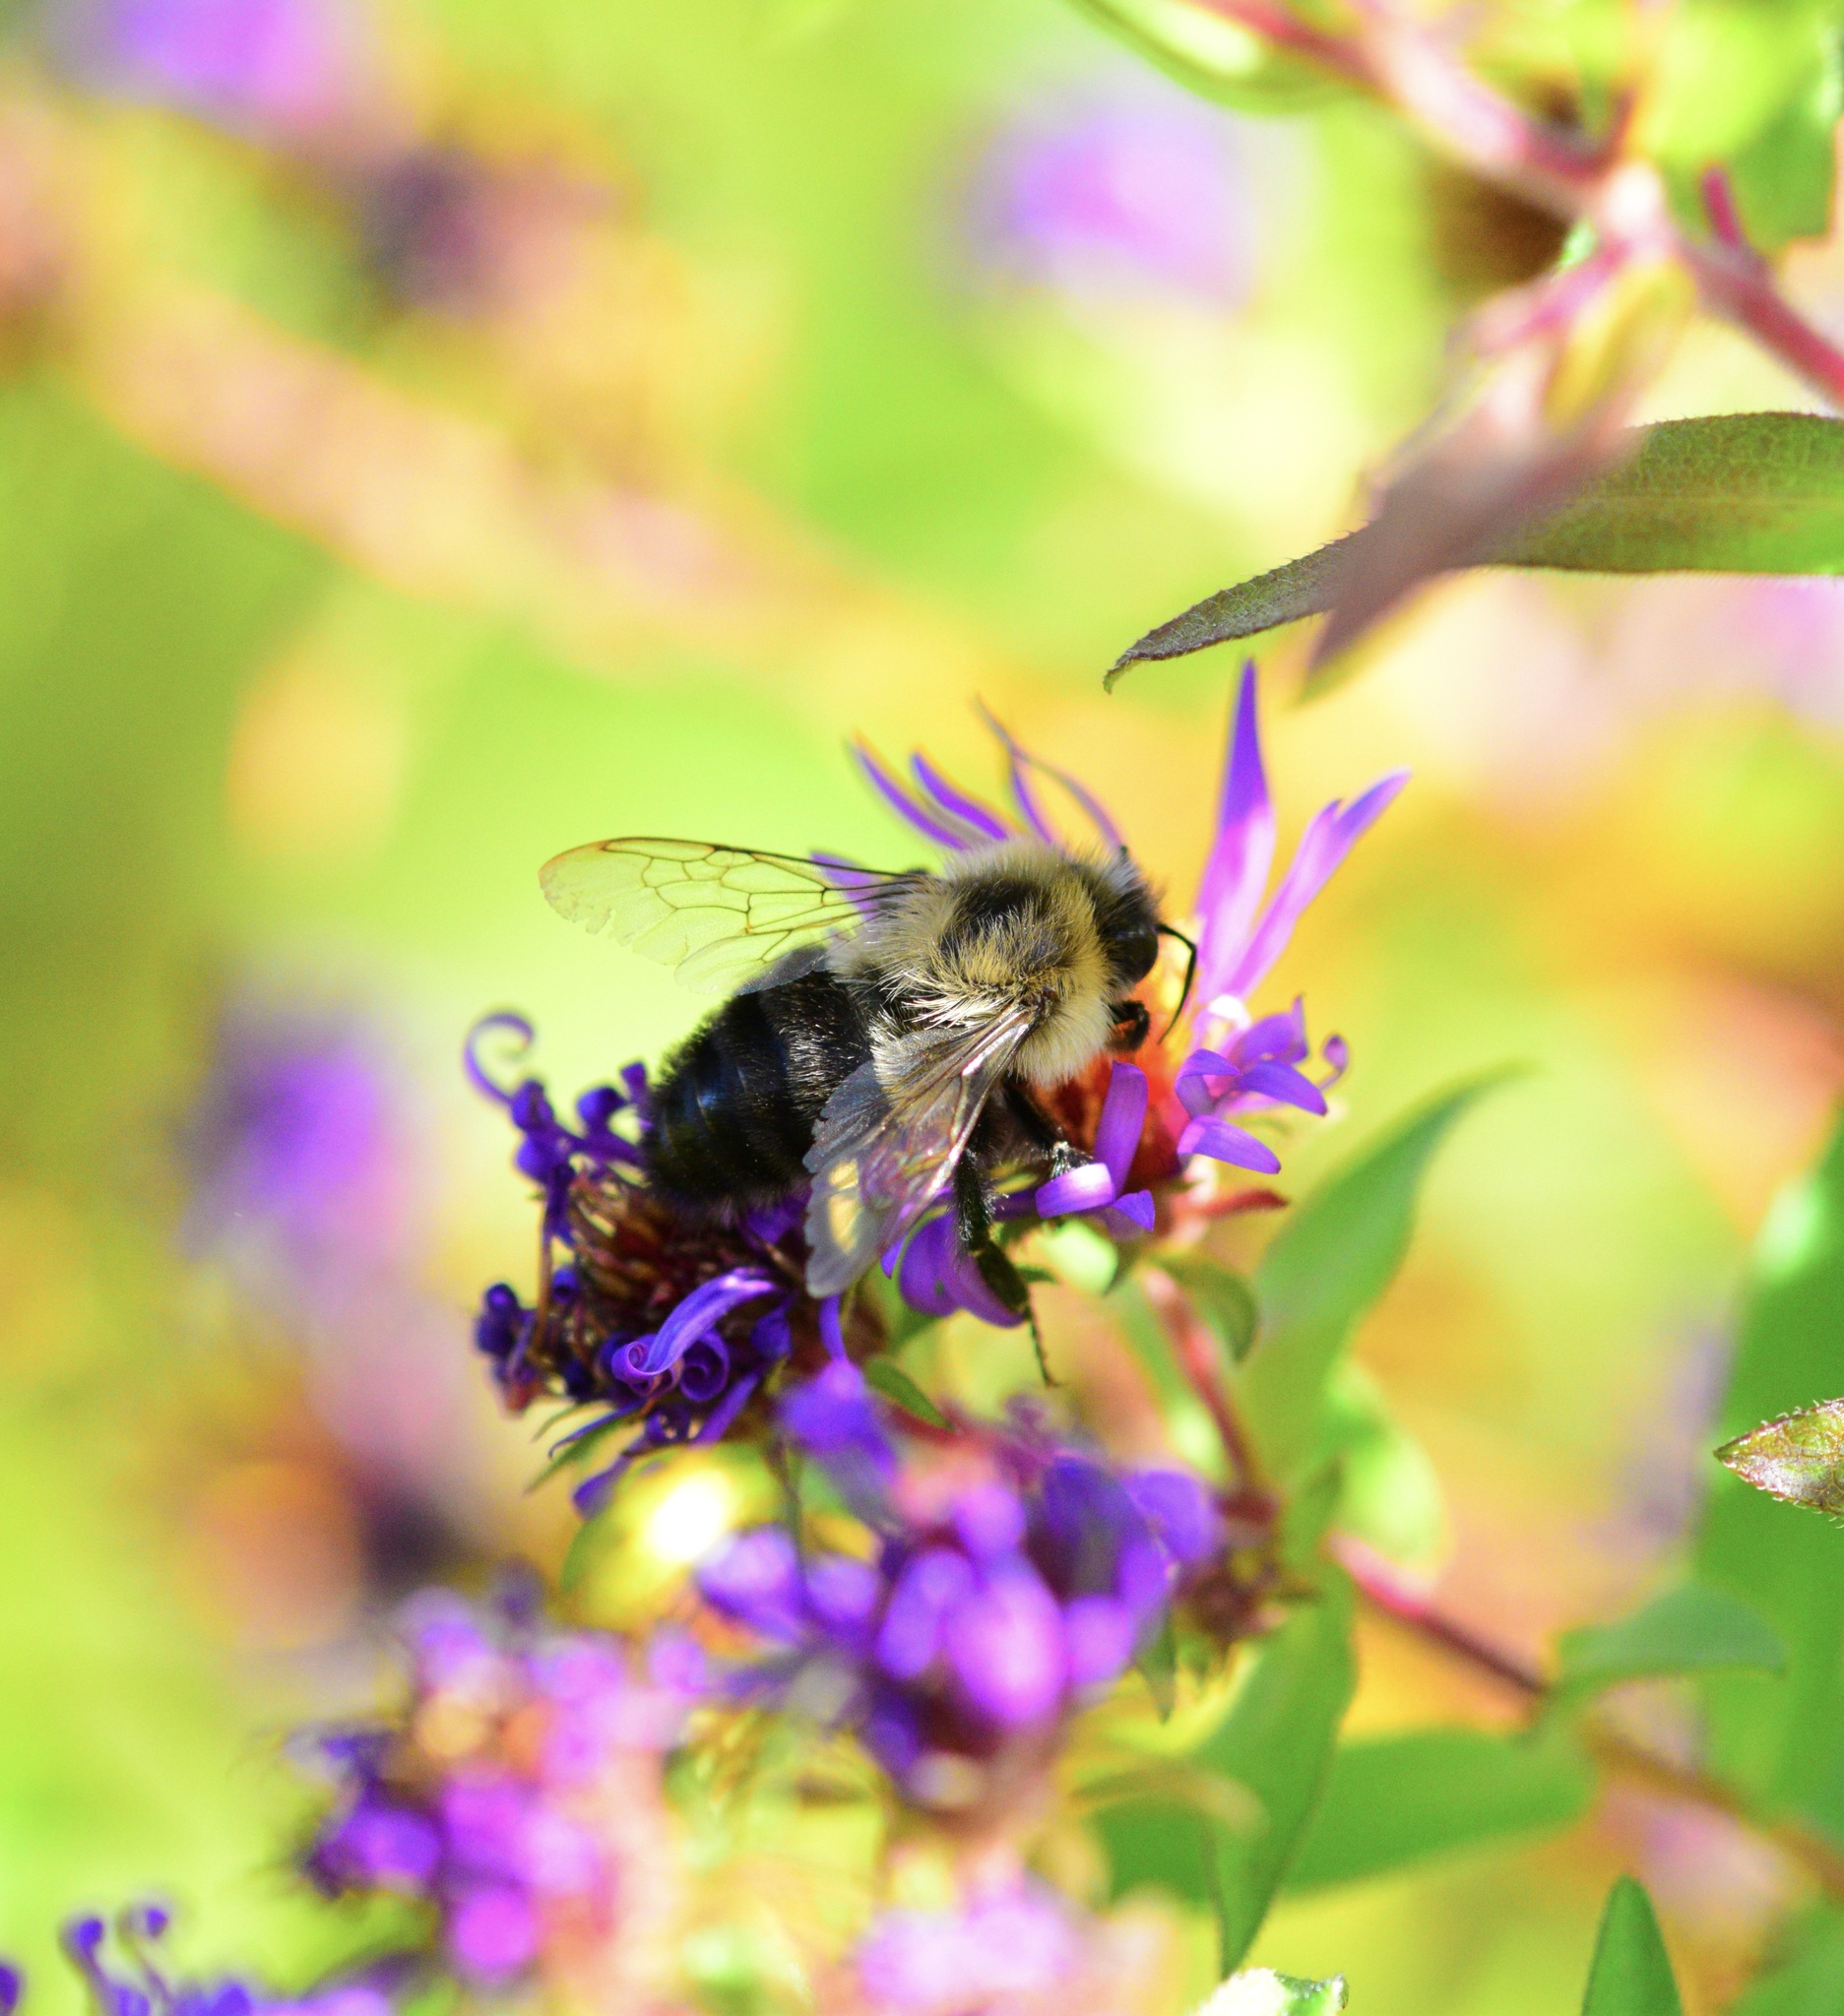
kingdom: Animalia
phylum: Arthropoda
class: Insecta
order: Hymenoptera
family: Apidae
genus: Bombus
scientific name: Bombus impatiens
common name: Common eastern bumble bee
